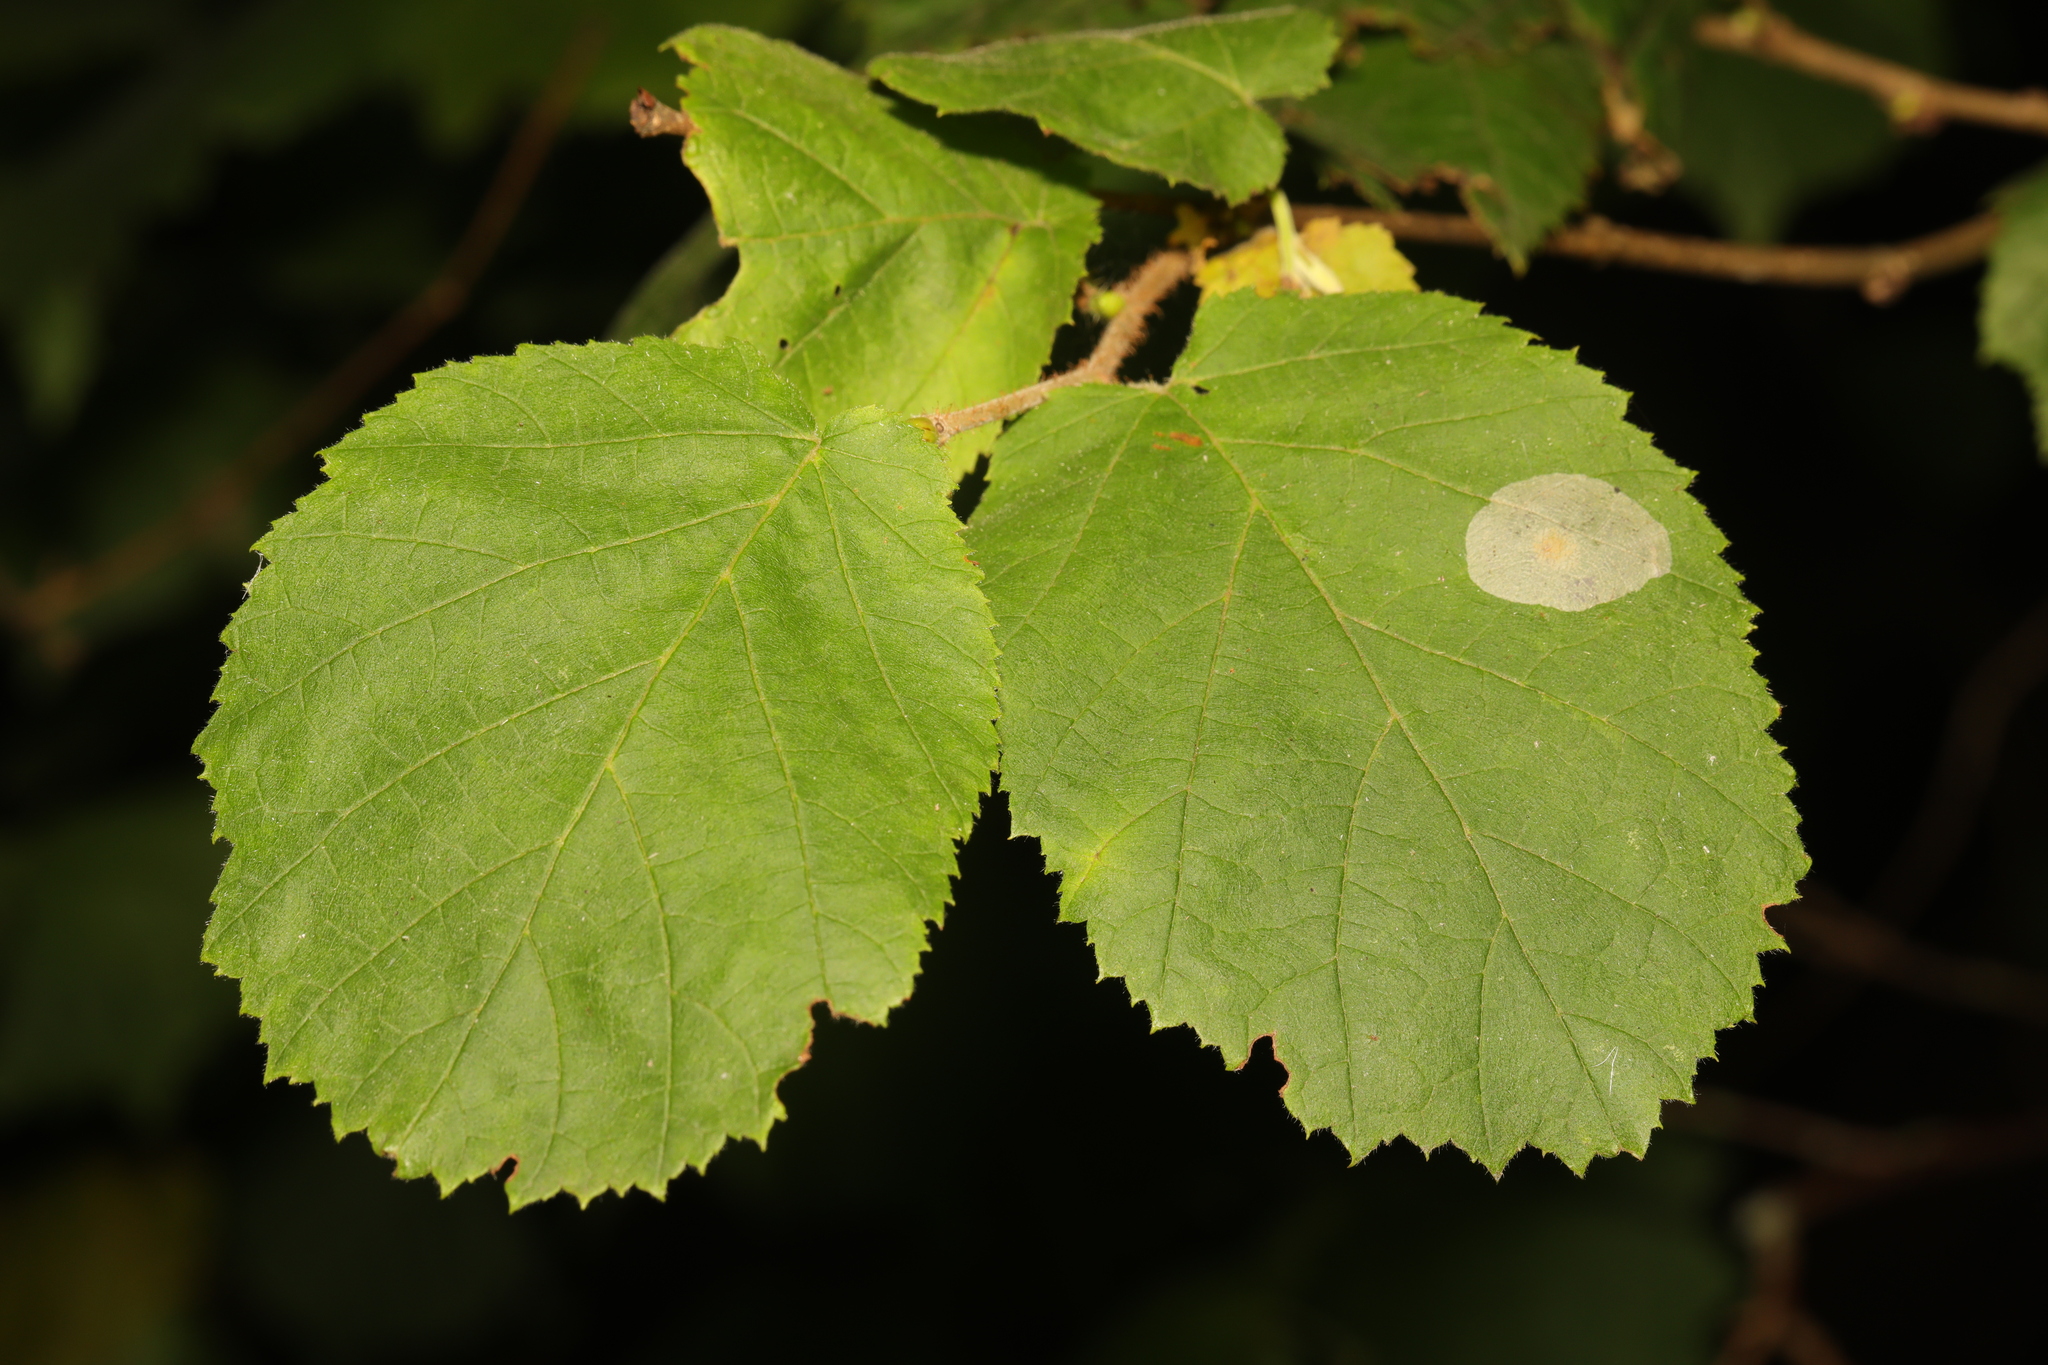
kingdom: Plantae
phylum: Tracheophyta
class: Magnoliopsida
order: Fagales
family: Betulaceae
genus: Corylus
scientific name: Corylus avellana
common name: European hazel
